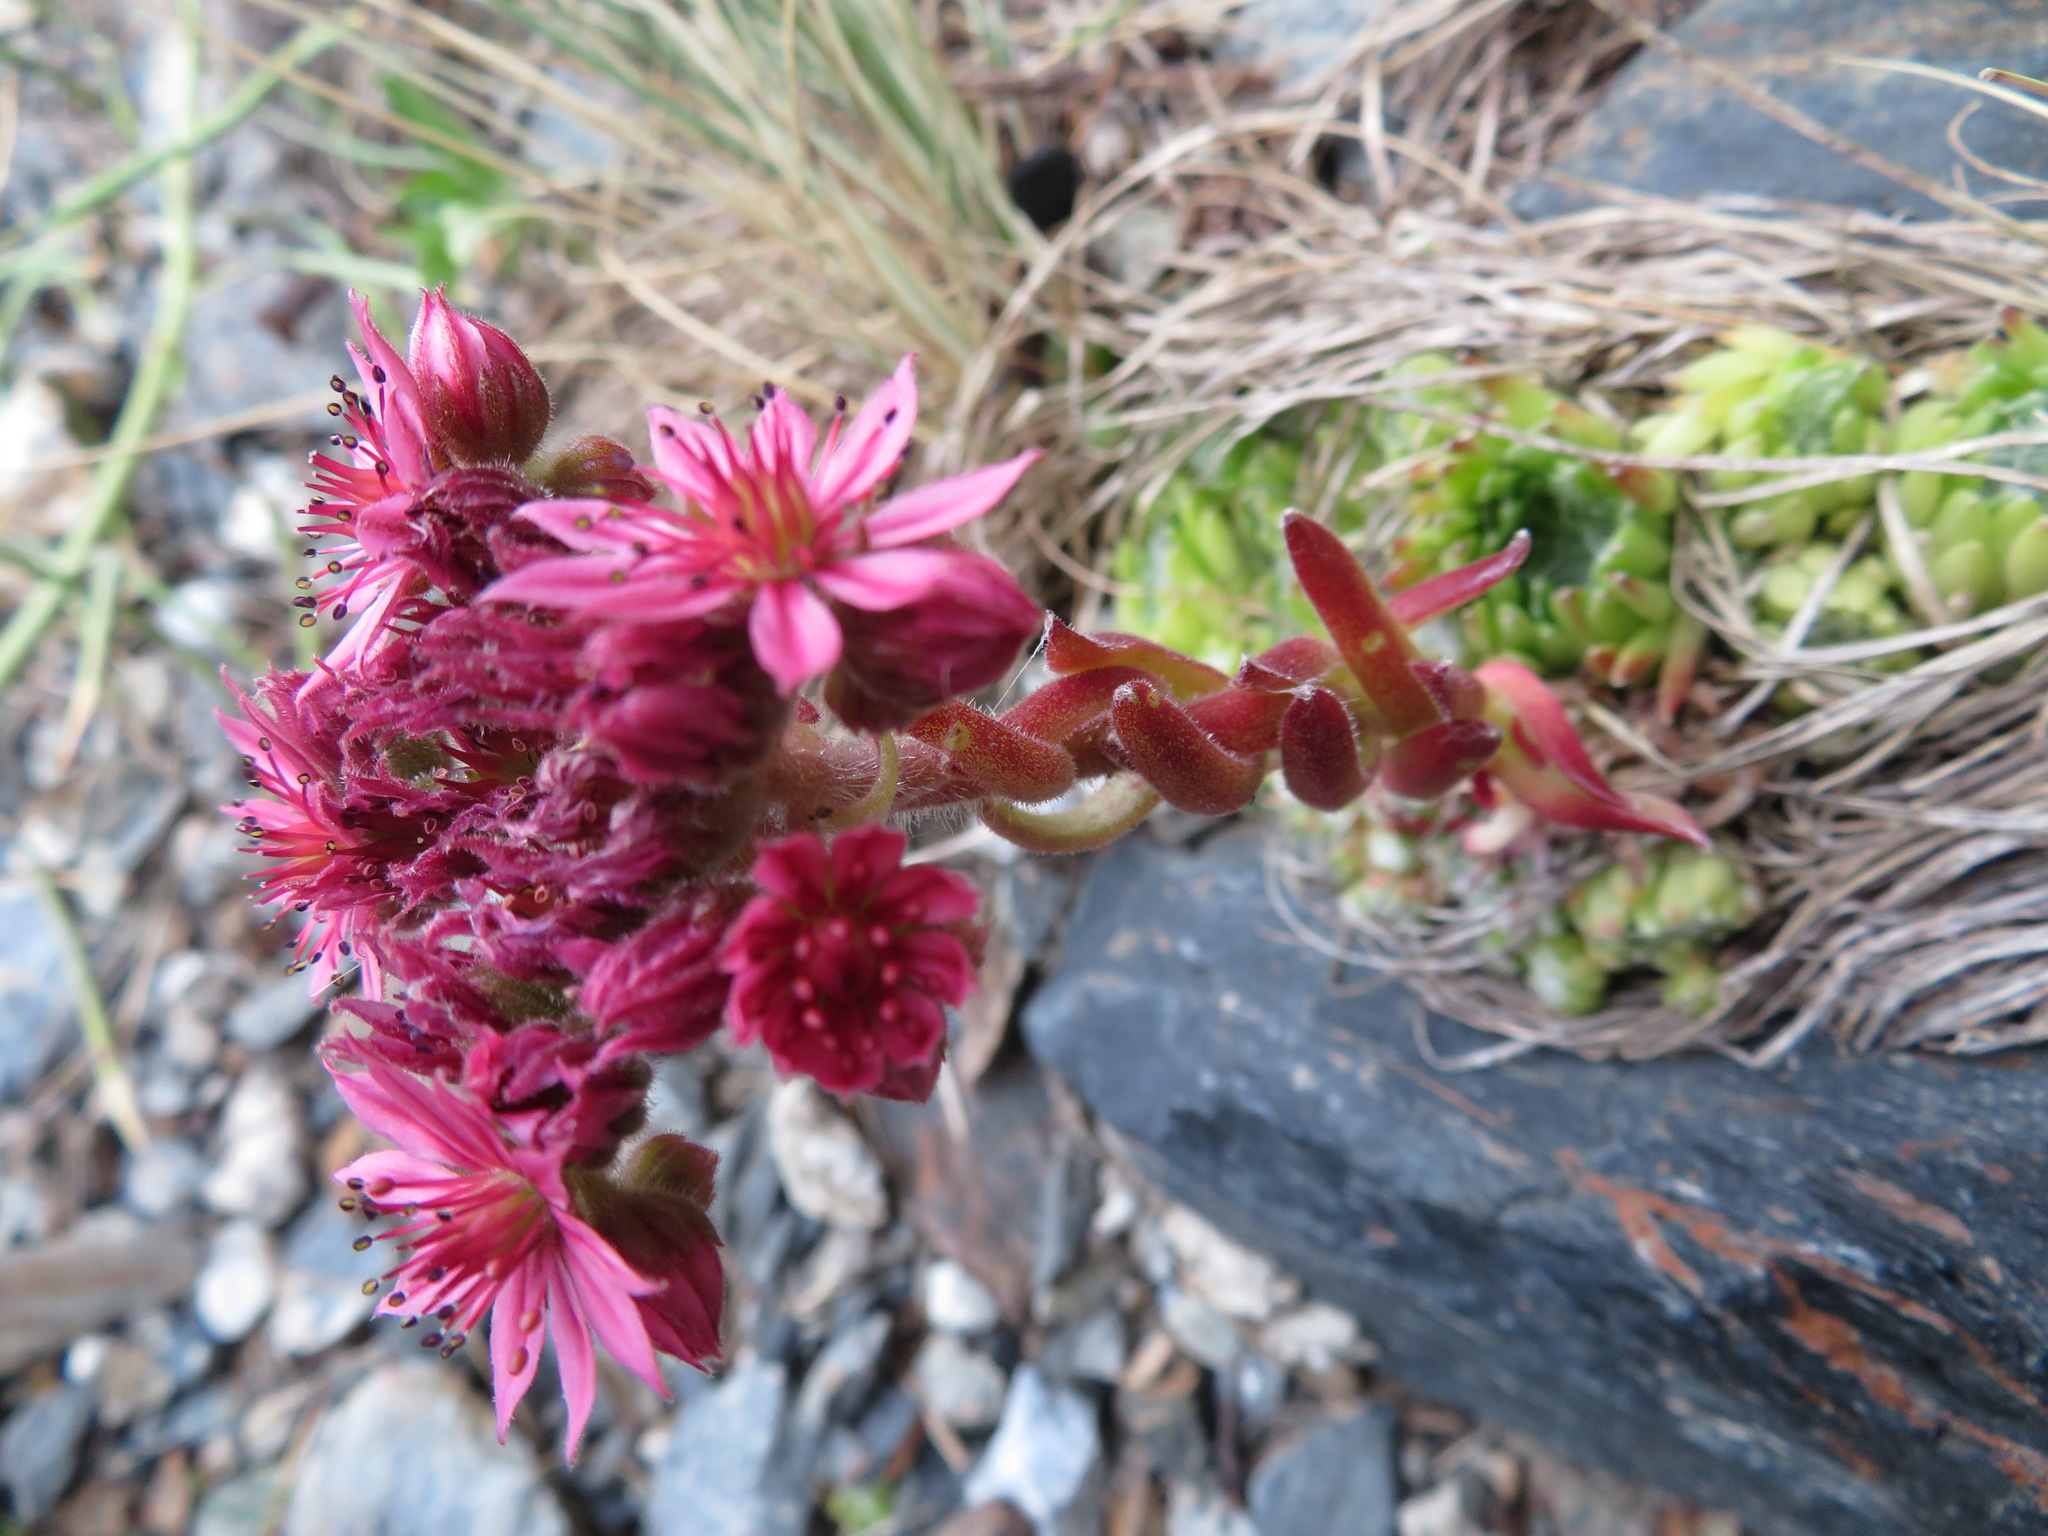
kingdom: Plantae
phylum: Tracheophyta
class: Magnoliopsida
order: Saxifragales
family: Crassulaceae
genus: Sempervivum
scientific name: Sempervivum arachnoideum
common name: Cobweb house-leek
